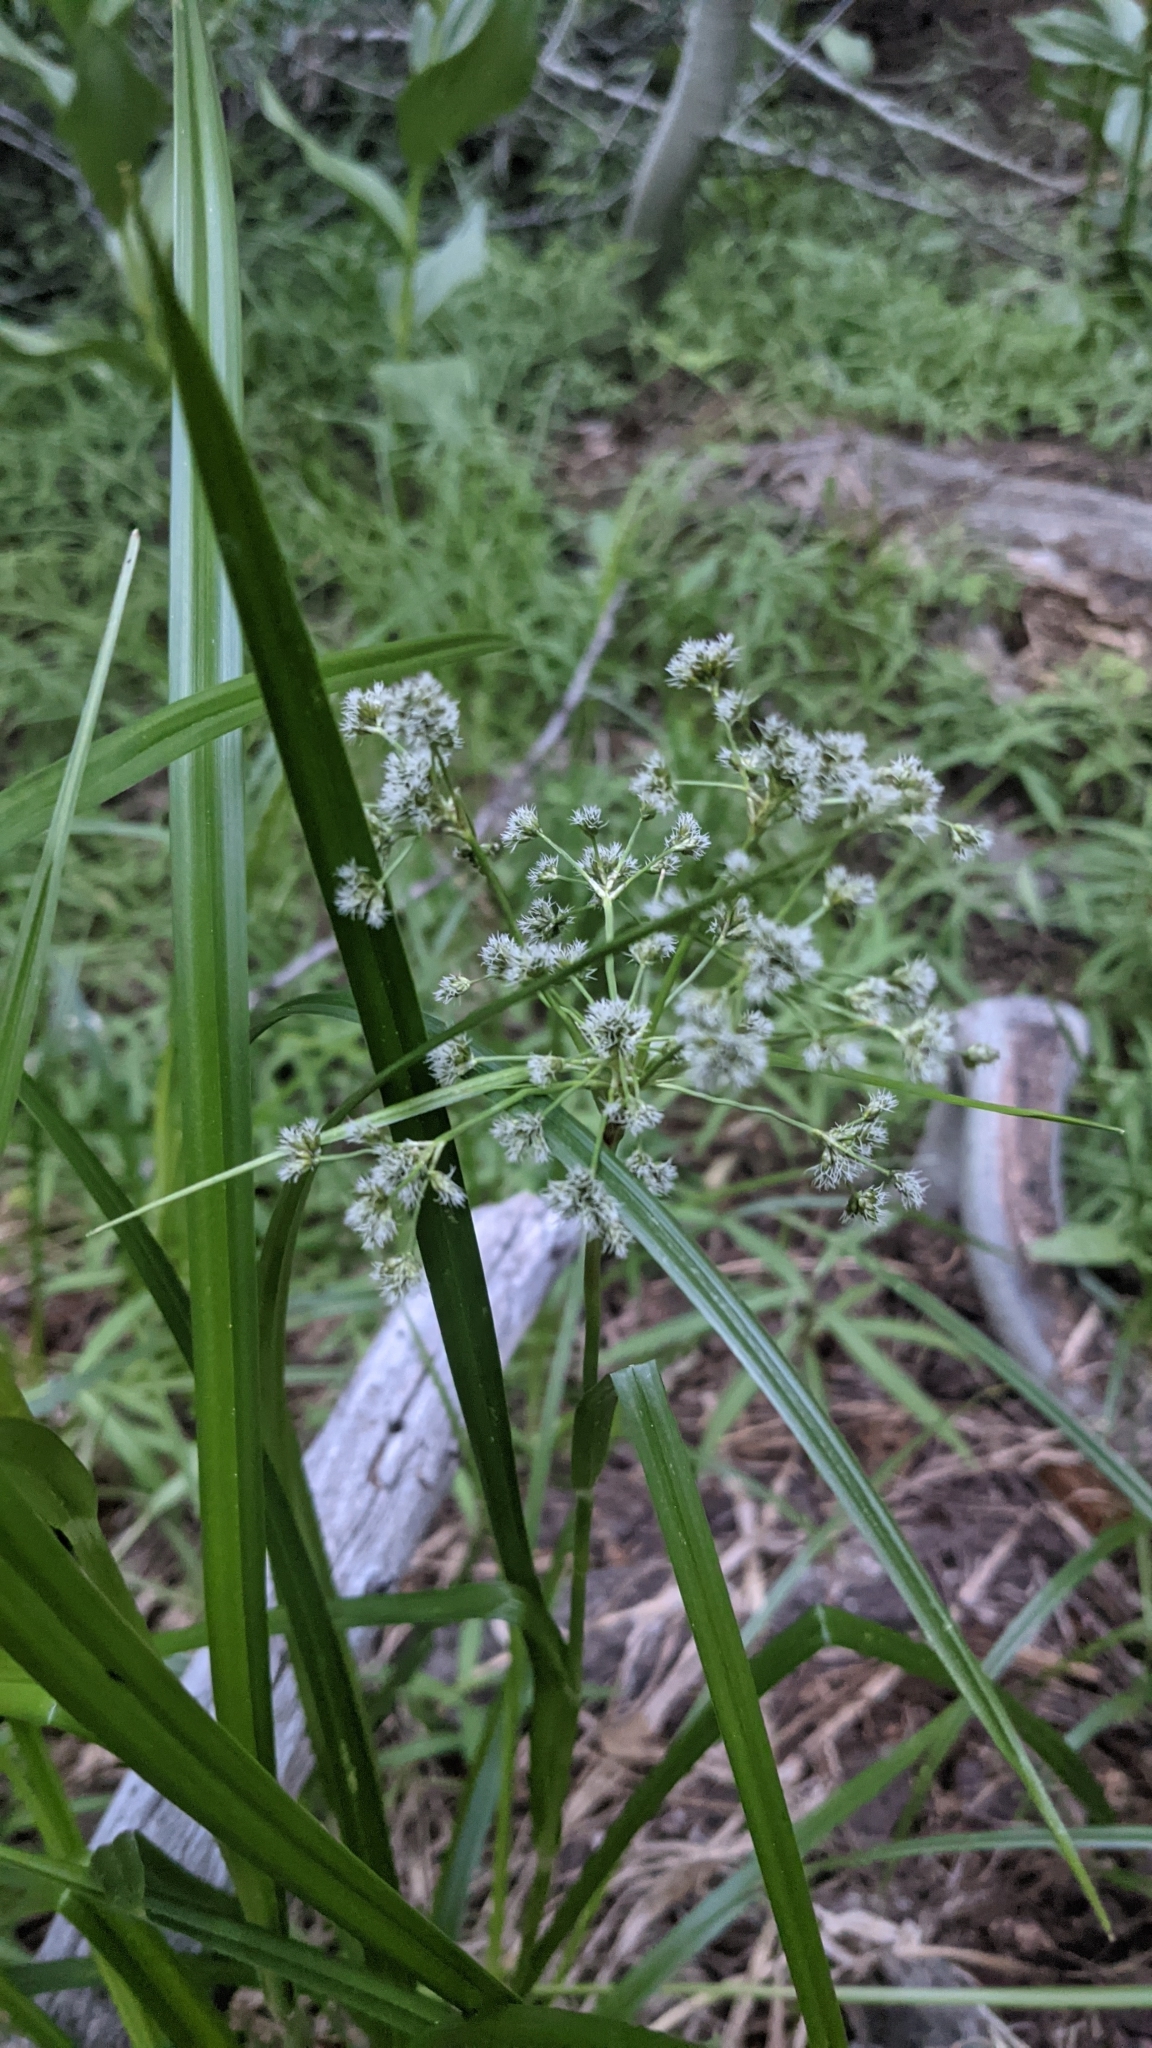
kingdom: Plantae
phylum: Tracheophyta
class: Liliopsida
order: Poales
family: Cyperaceae
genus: Scirpus
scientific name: Scirpus microcarpus
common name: Panicled bulrush
